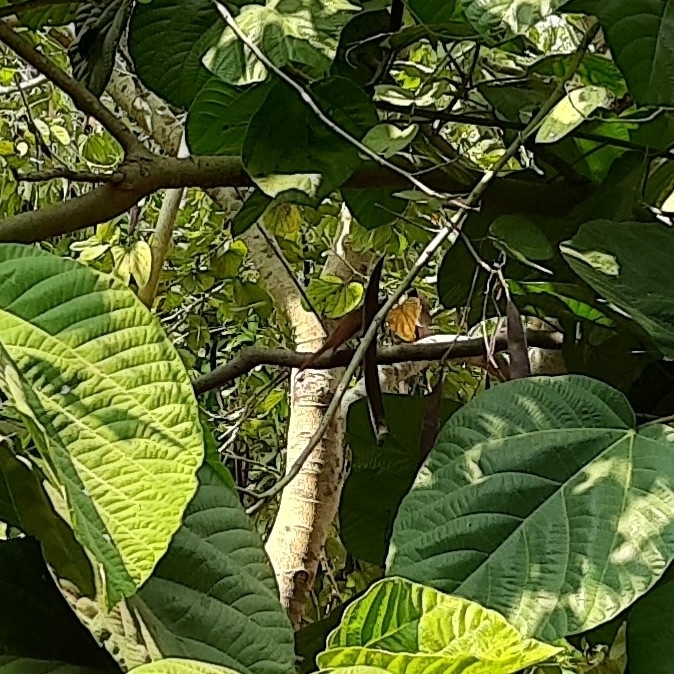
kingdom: Animalia
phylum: Chordata
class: Aves
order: Passeriformes
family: Monarchidae
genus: Terpsiphone
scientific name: Terpsiphone paradisi
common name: Indian paradise flycatcher
